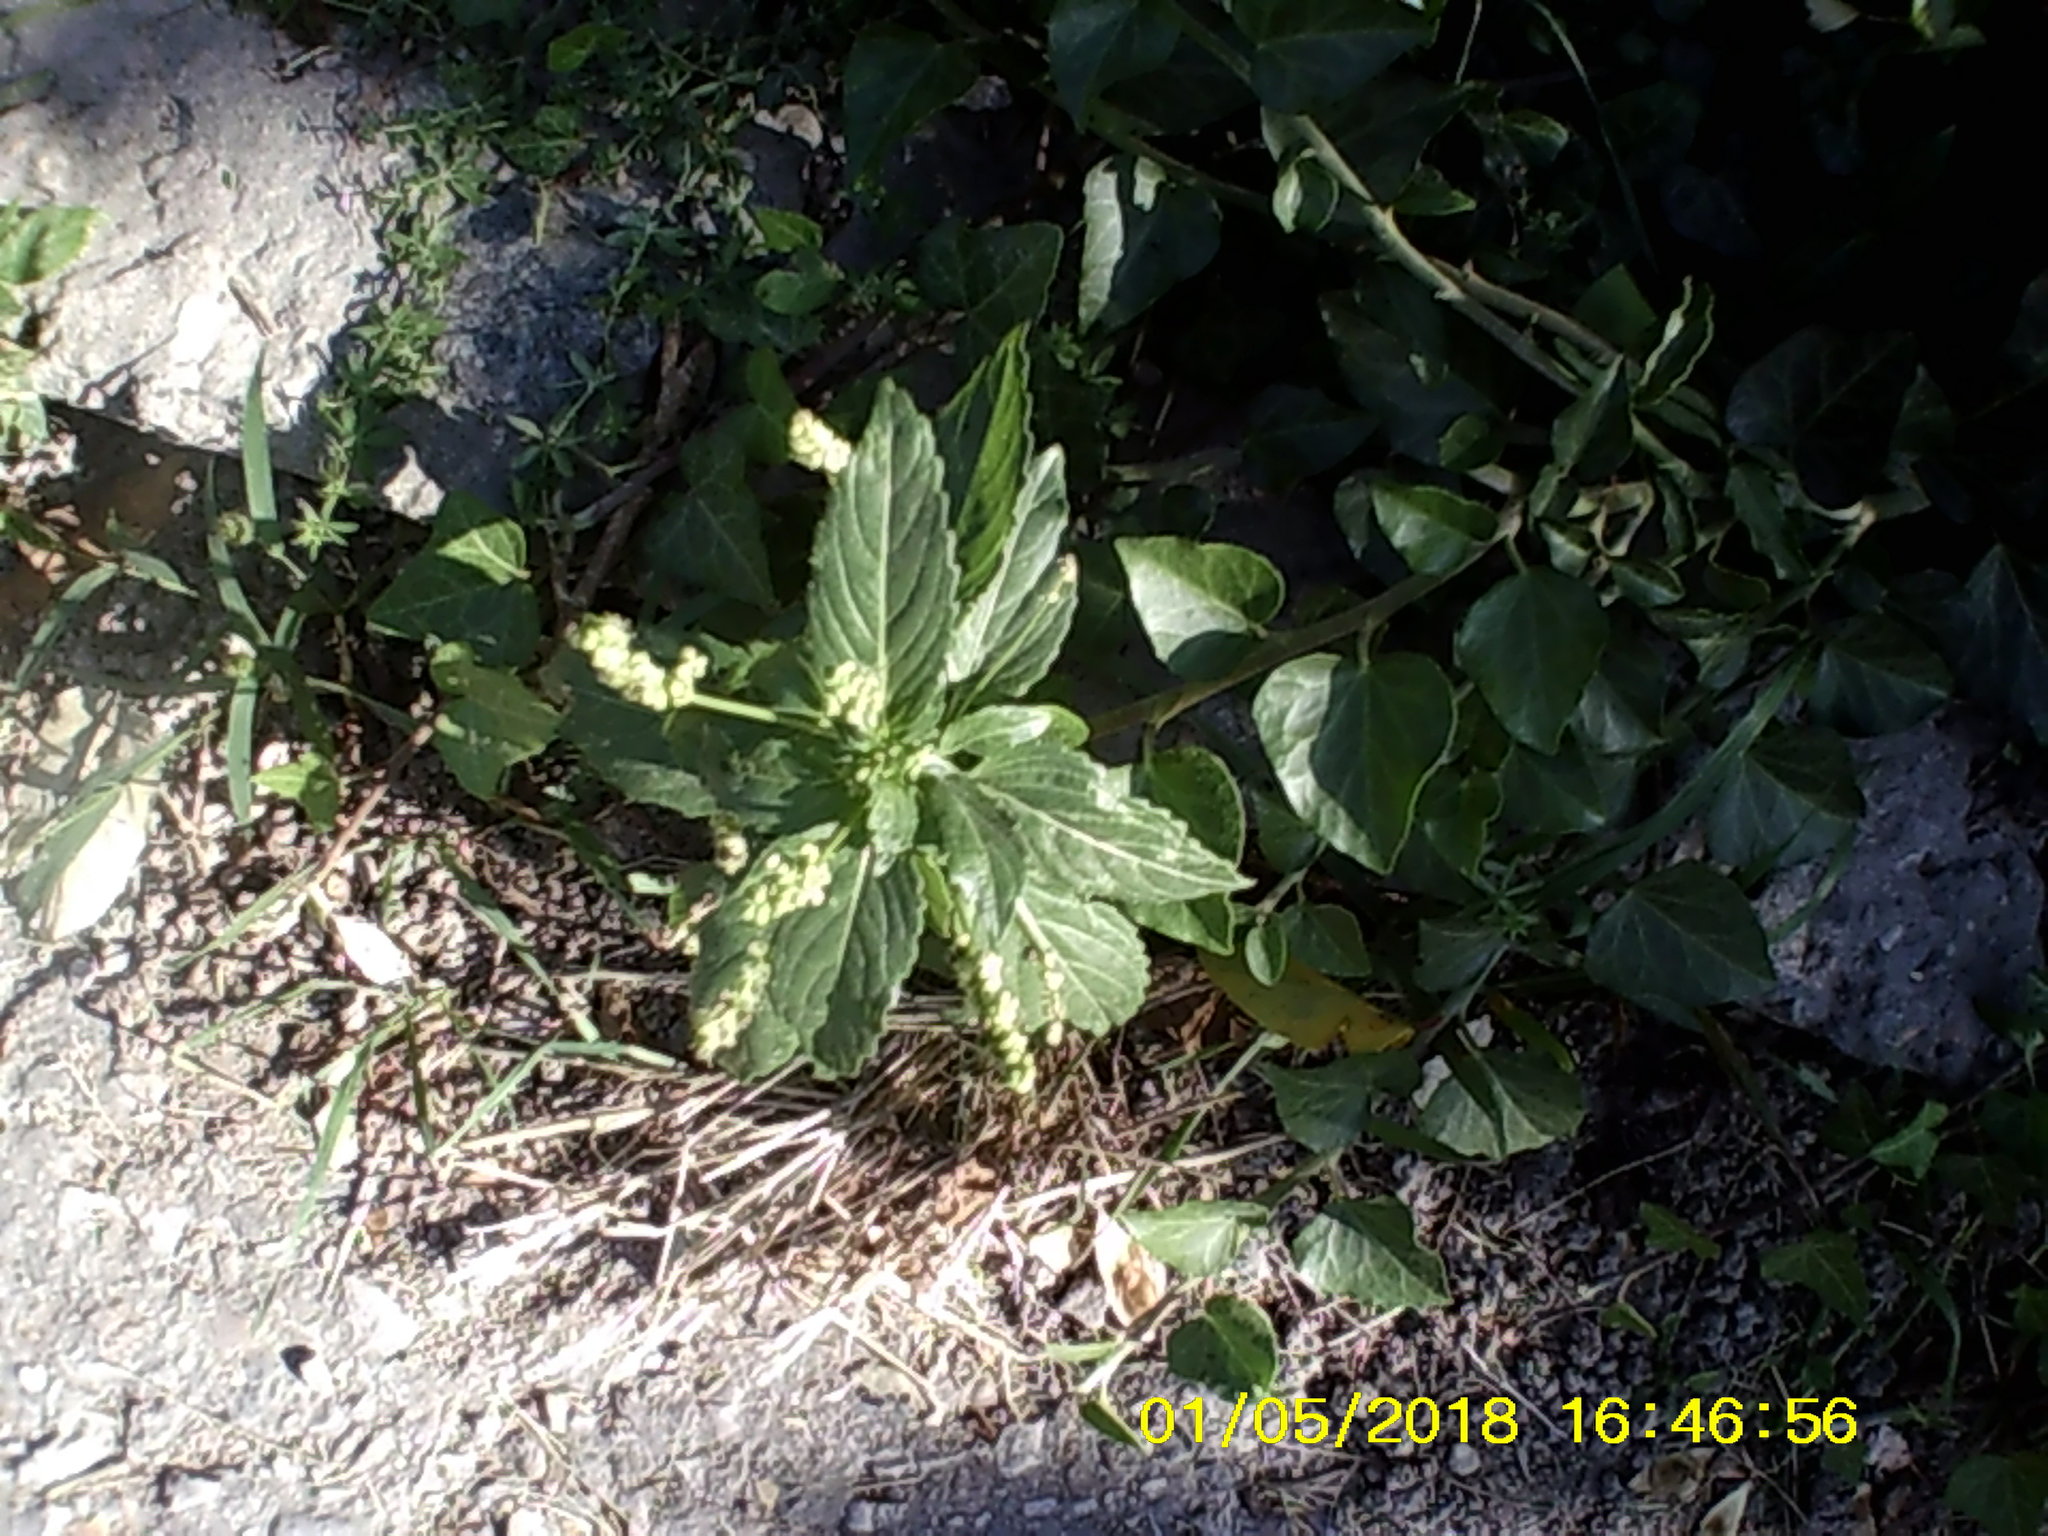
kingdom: Plantae
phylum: Tracheophyta
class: Magnoliopsida
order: Malpighiales
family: Euphorbiaceae
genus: Mercurialis
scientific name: Mercurialis annua
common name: Annual mercury
